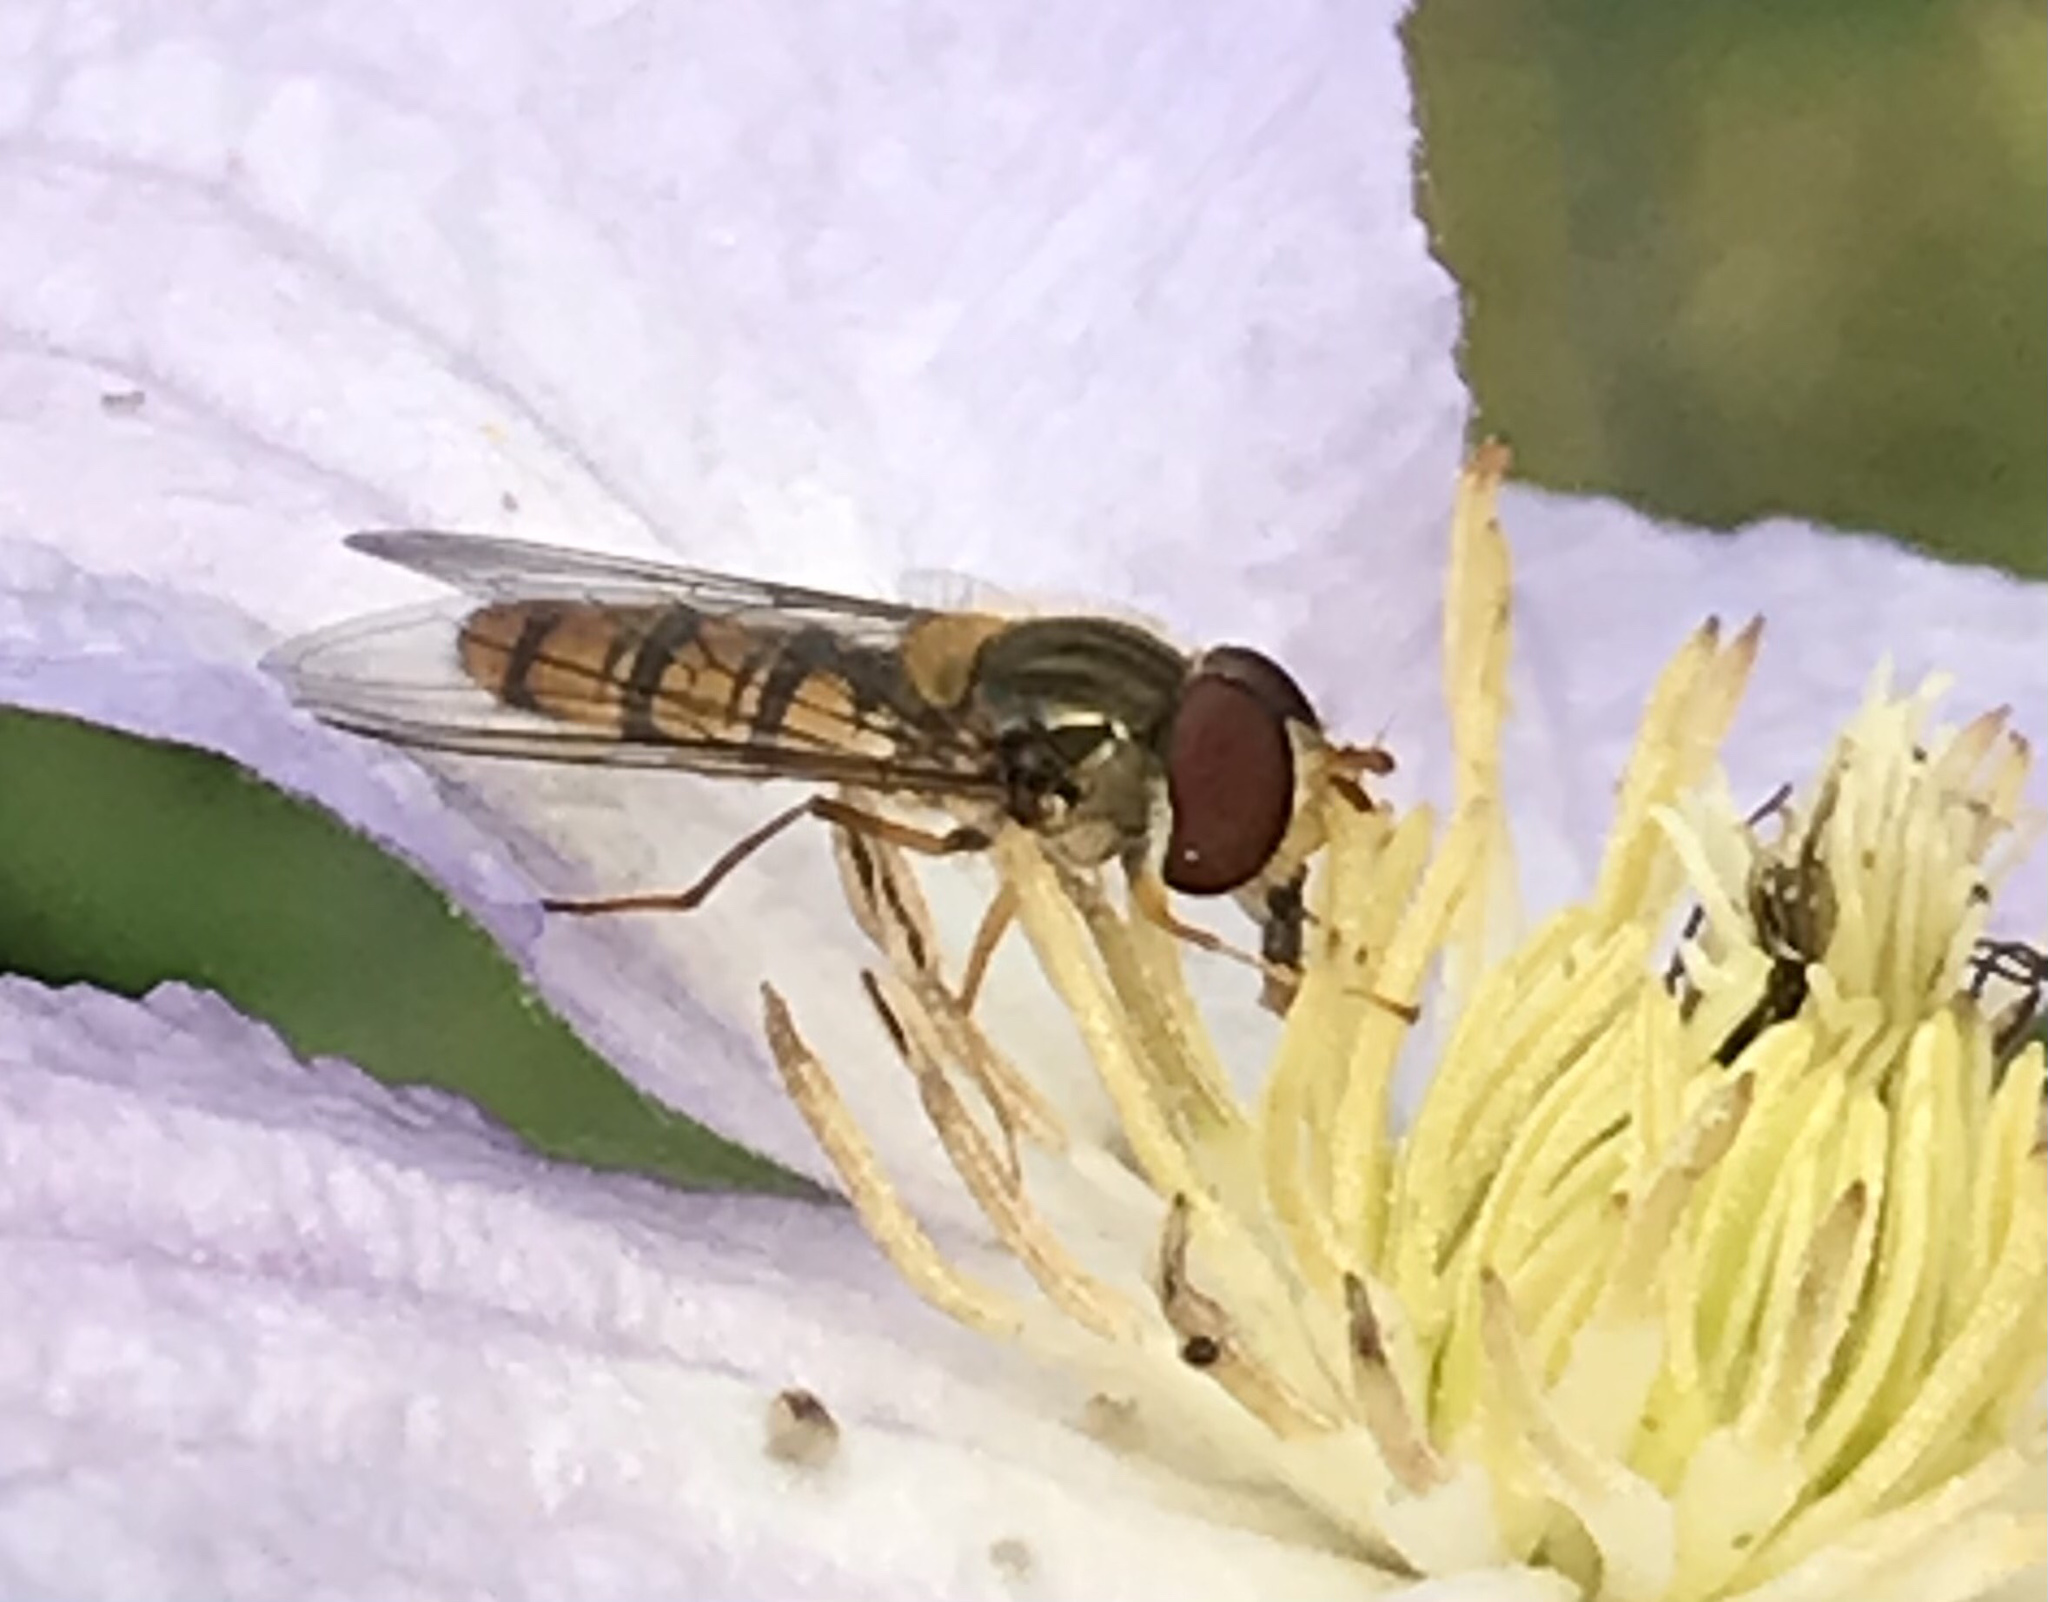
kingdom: Animalia
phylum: Arthropoda
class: Insecta
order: Diptera
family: Syrphidae
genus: Episyrphus
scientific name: Episyrphus balteatus
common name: Marmalade hoverfly
